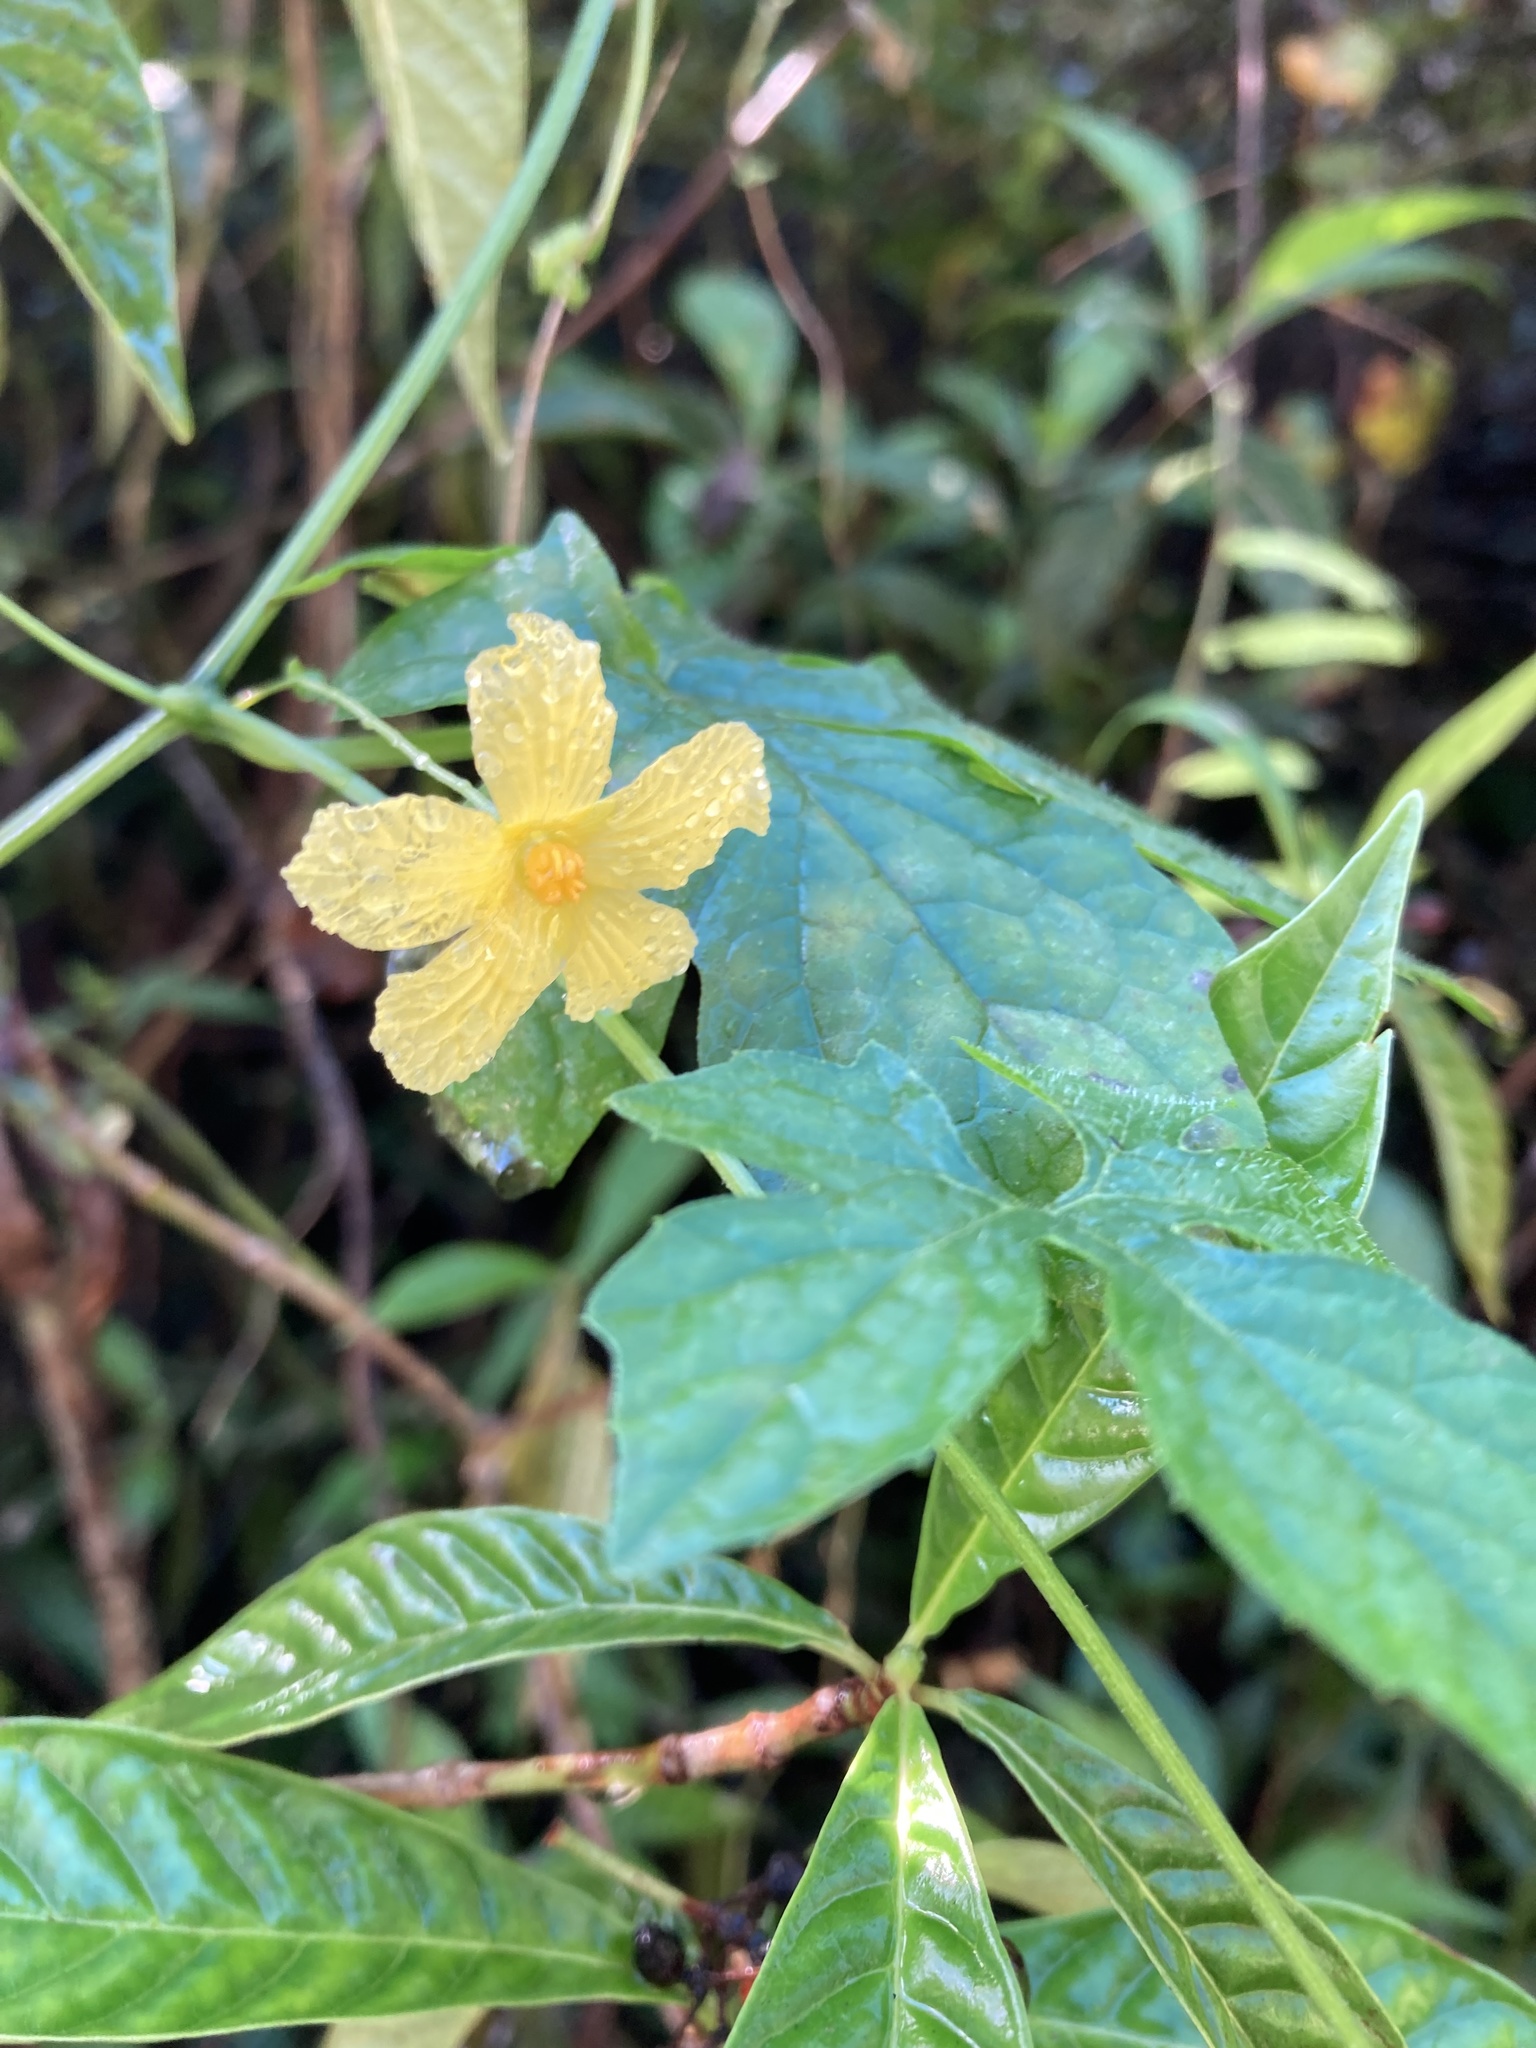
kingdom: Plantae
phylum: Tracheophyta
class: Magnoliopsida
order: Cucurbitales
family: Cucurbitaceae
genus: Momordica
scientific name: Momordica charantia
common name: Balsampear
